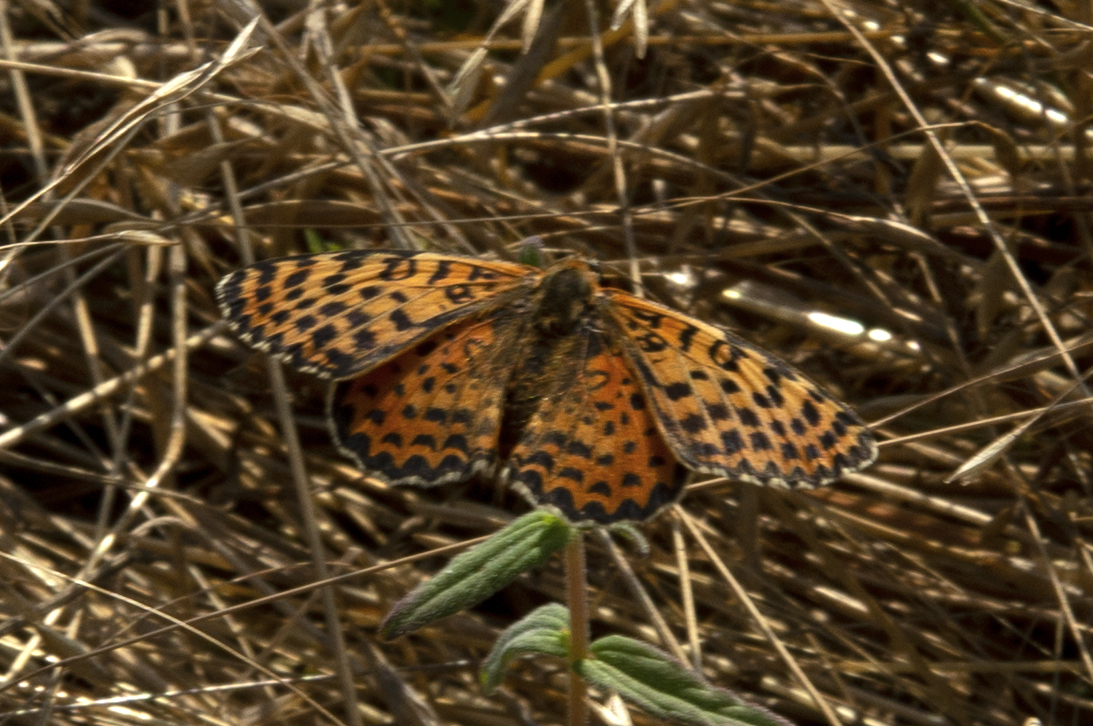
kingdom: Animalia
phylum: Arthropoda
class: Insecta
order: Lepidoptera
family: Nymphalidae
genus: Melitaea
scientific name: Melitaea didyma
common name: Spotted fritillary
